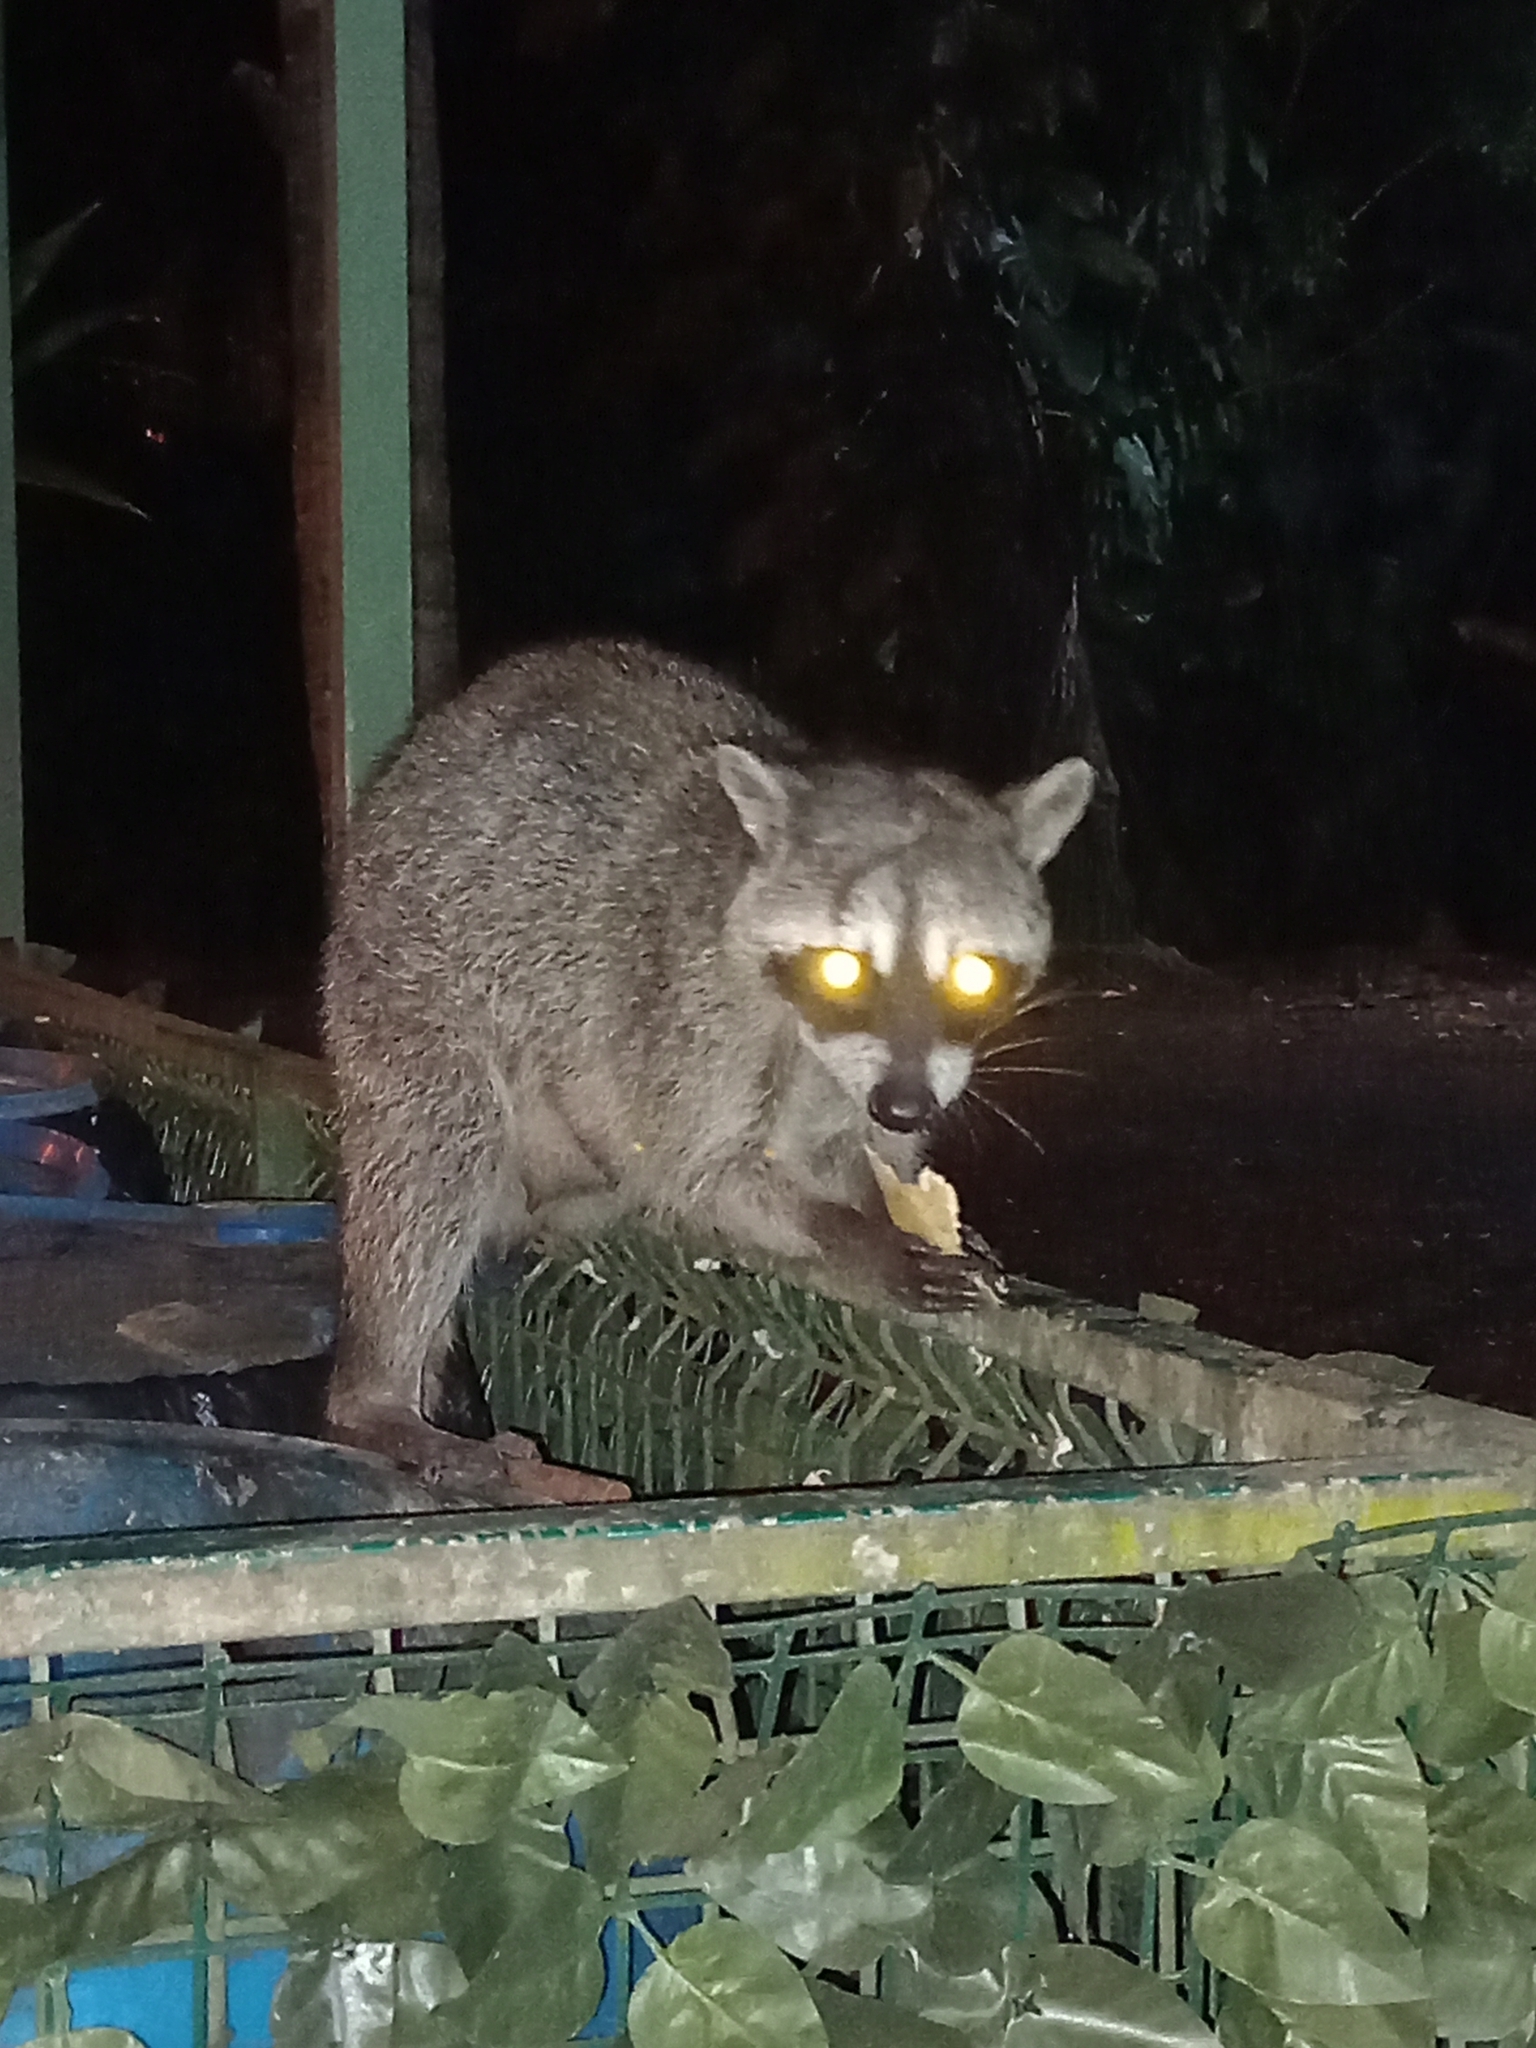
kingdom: Animalia
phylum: Chordata
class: Mammalia
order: Carnivora
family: Procyonidae
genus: Procyon
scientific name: Procyon lotor
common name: Raccoon
